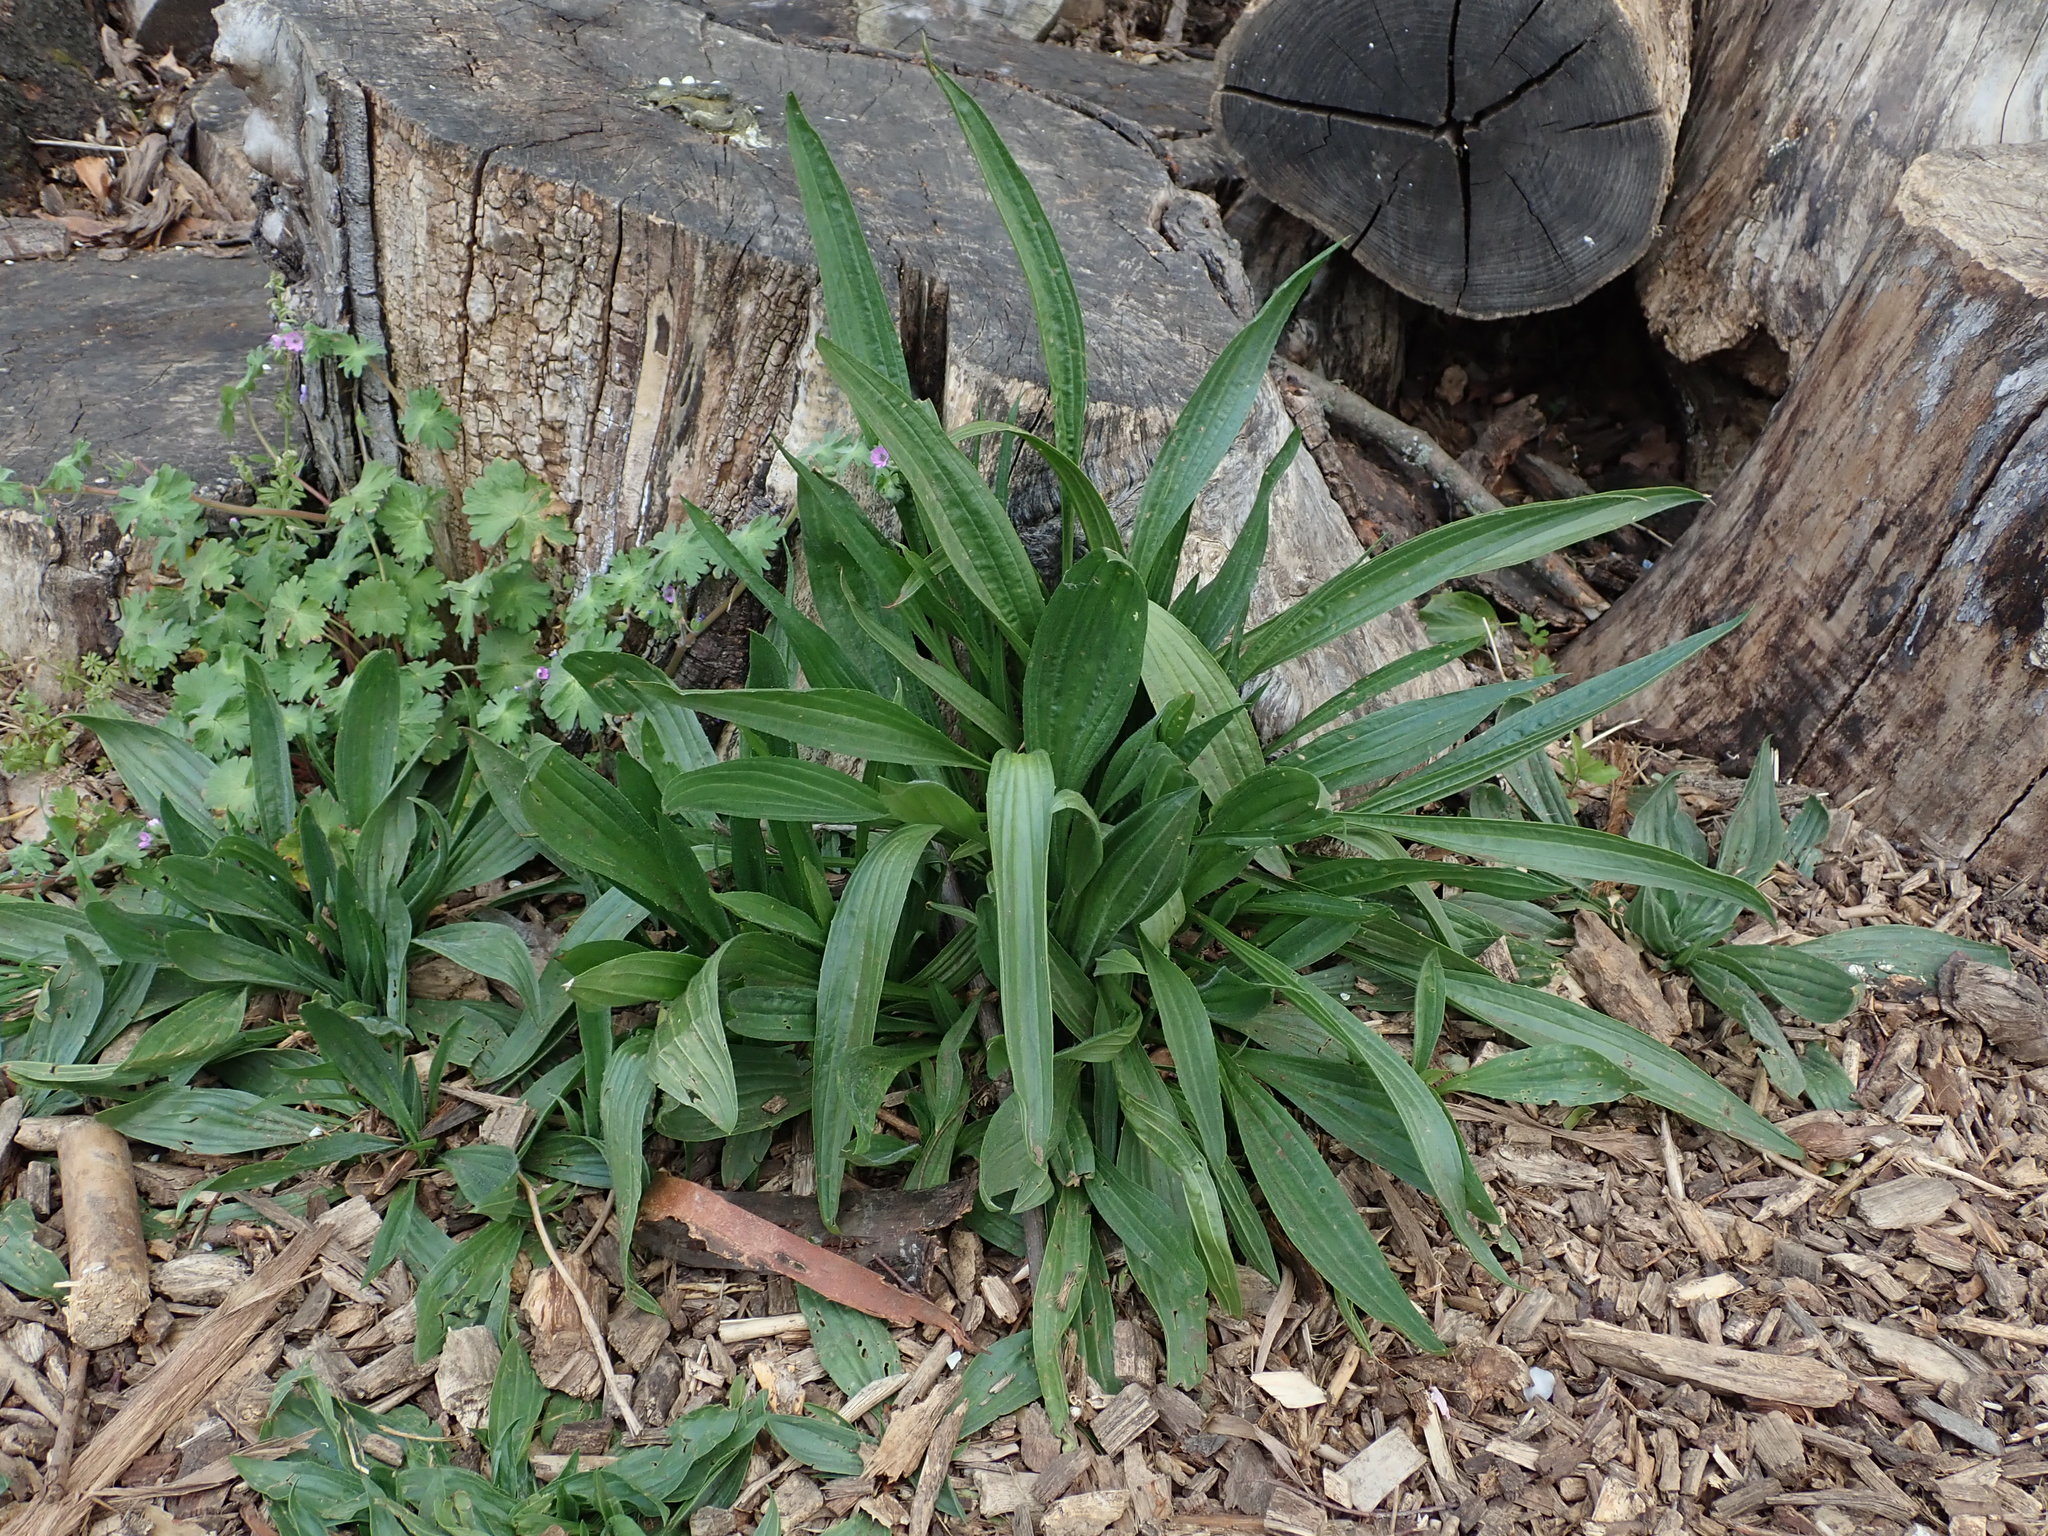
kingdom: Plantae
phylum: Tracheophyta
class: Magnoliopsida
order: Lamiales
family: Plantaginaceae
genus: Plantago
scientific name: Plantago lanceolata
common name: Ribwort plantain
